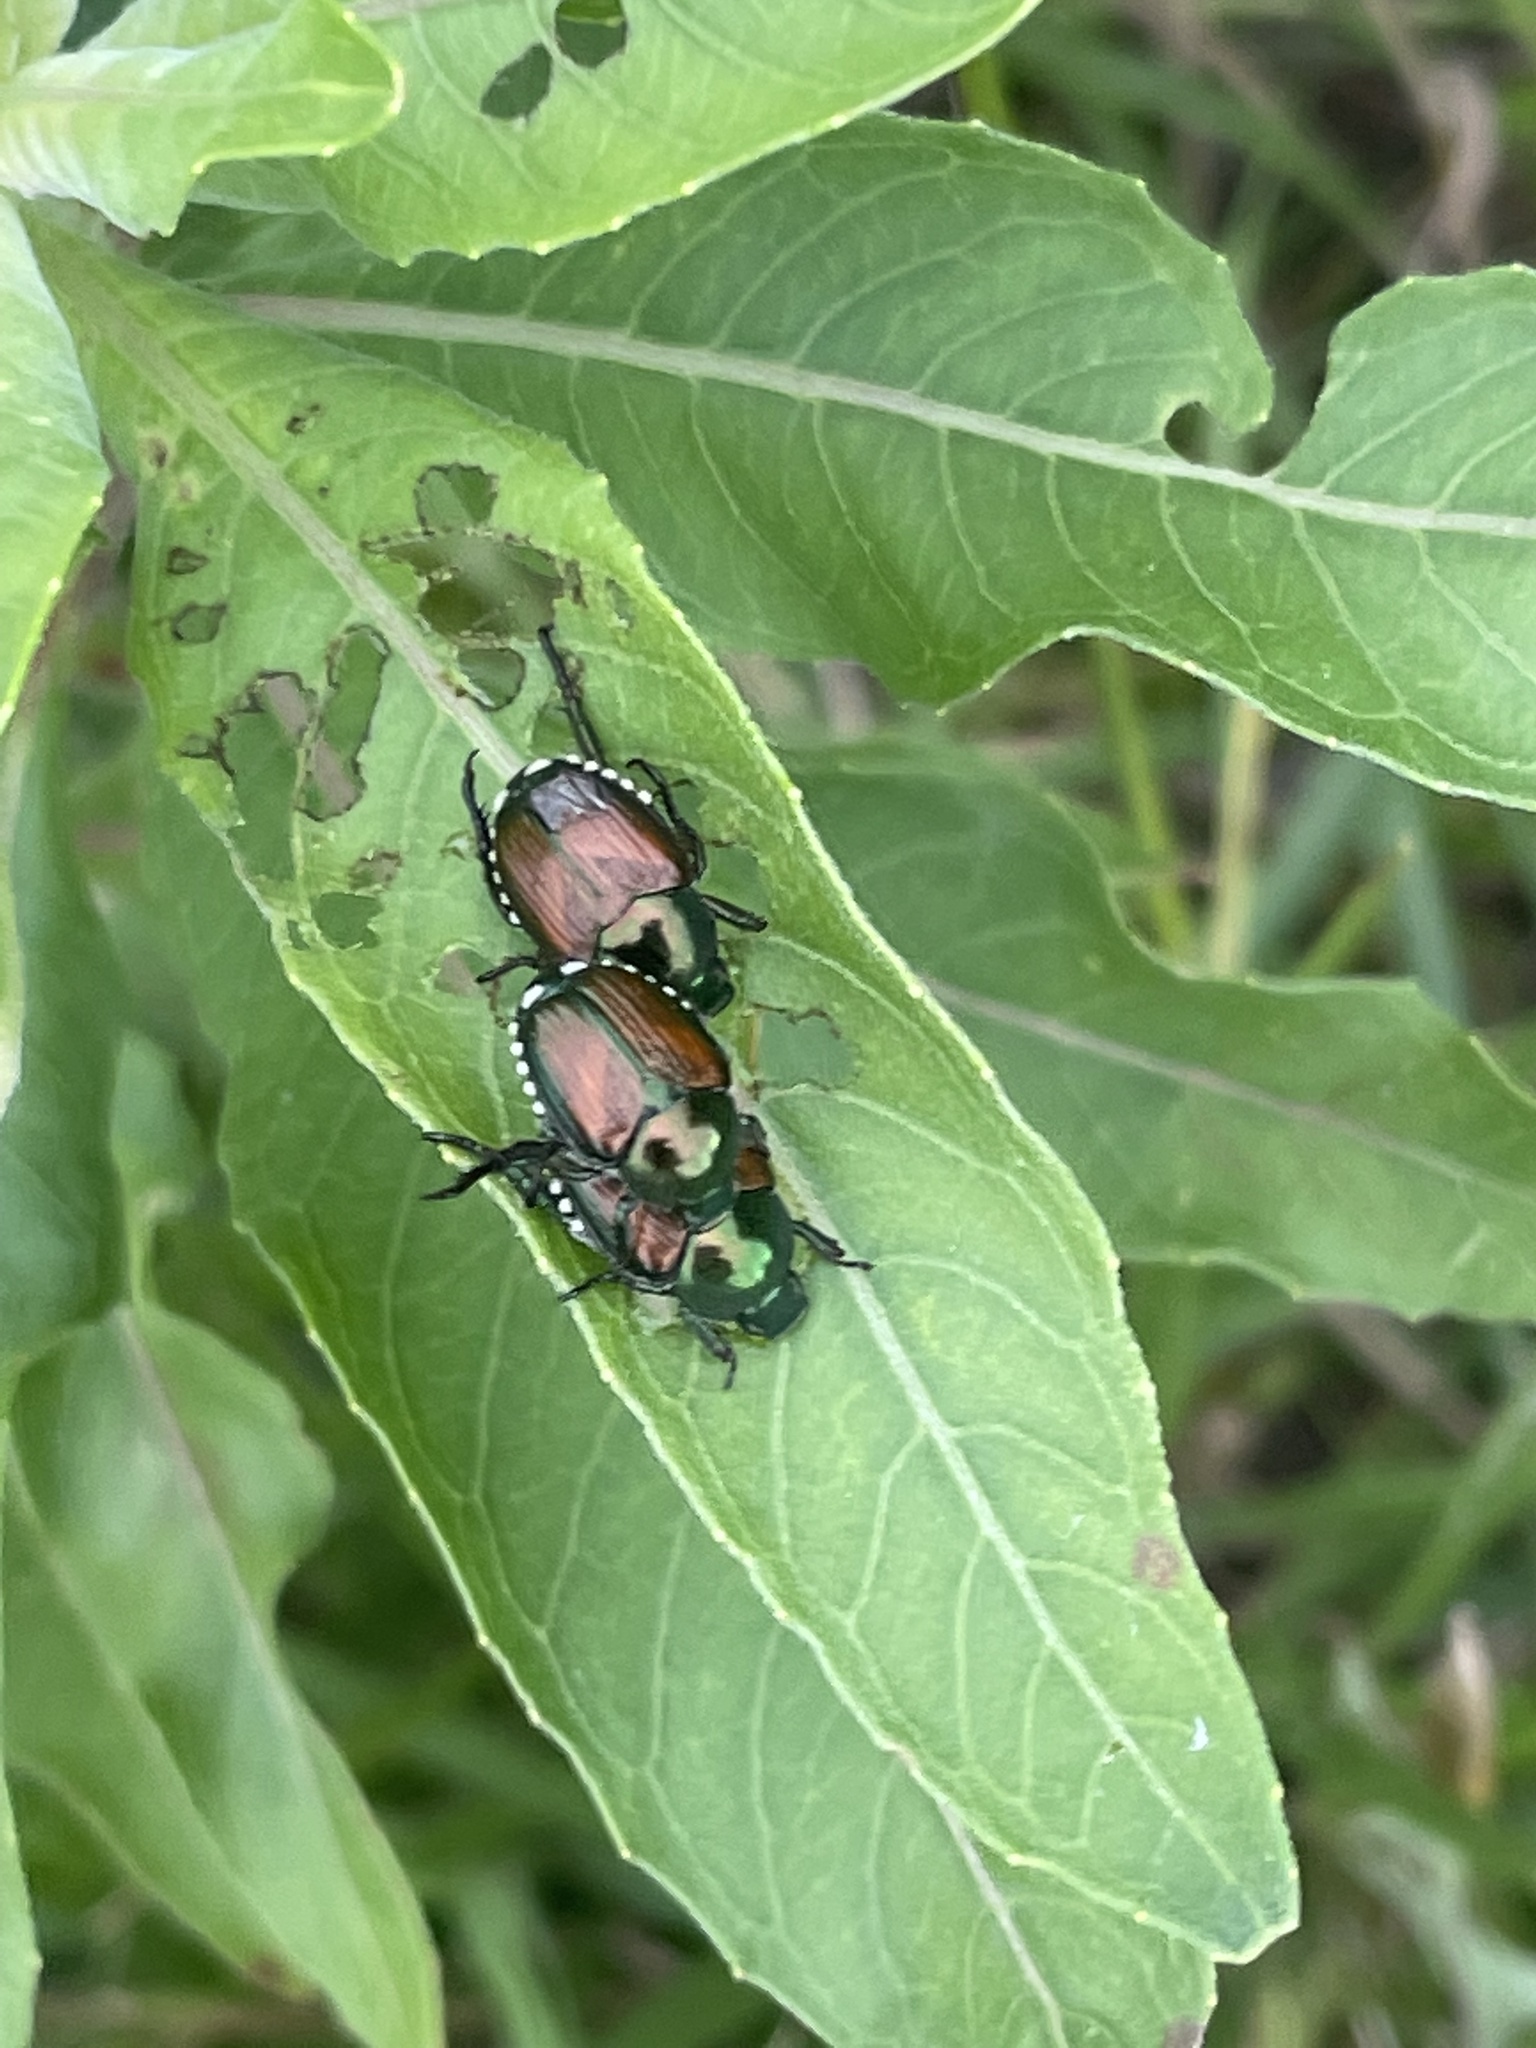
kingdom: Animalia
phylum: Arthropoda
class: Insecta
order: Coleoptera
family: Scarabaeidae
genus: Popillia
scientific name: Popillia japonica
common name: Japanese beetle
